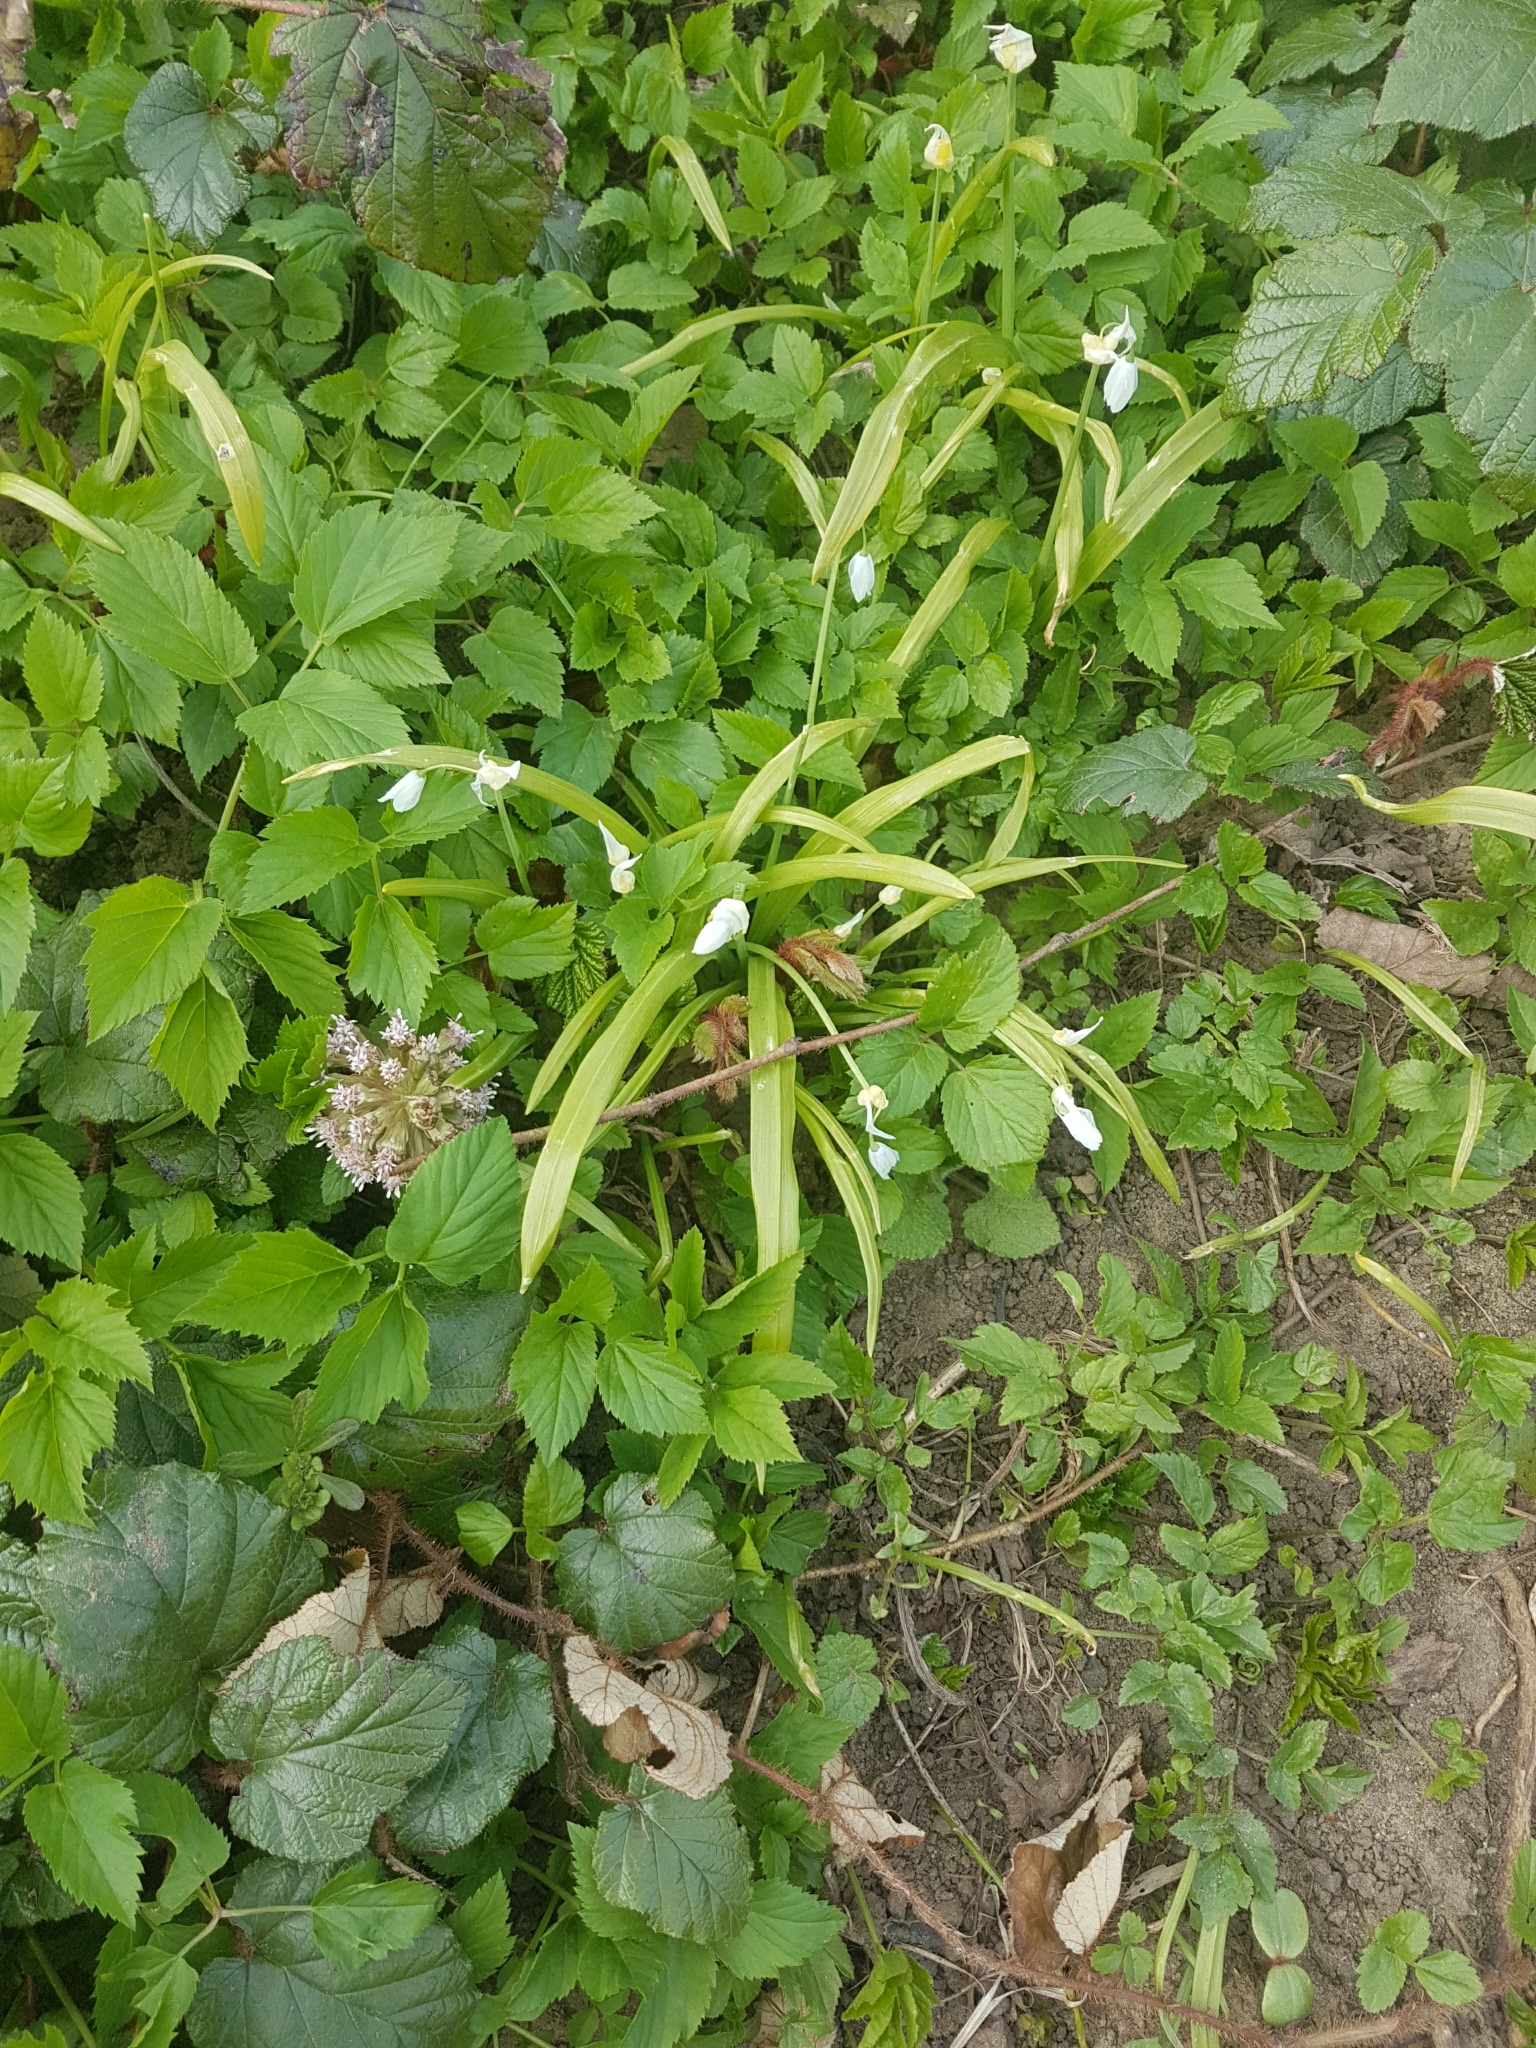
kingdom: Plantae
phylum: Tracheophyta
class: Liliopsida
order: Asparagales
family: Amaryllidaceae
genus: Allium
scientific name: Allium paradoxum
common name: Few-flowered garlic
